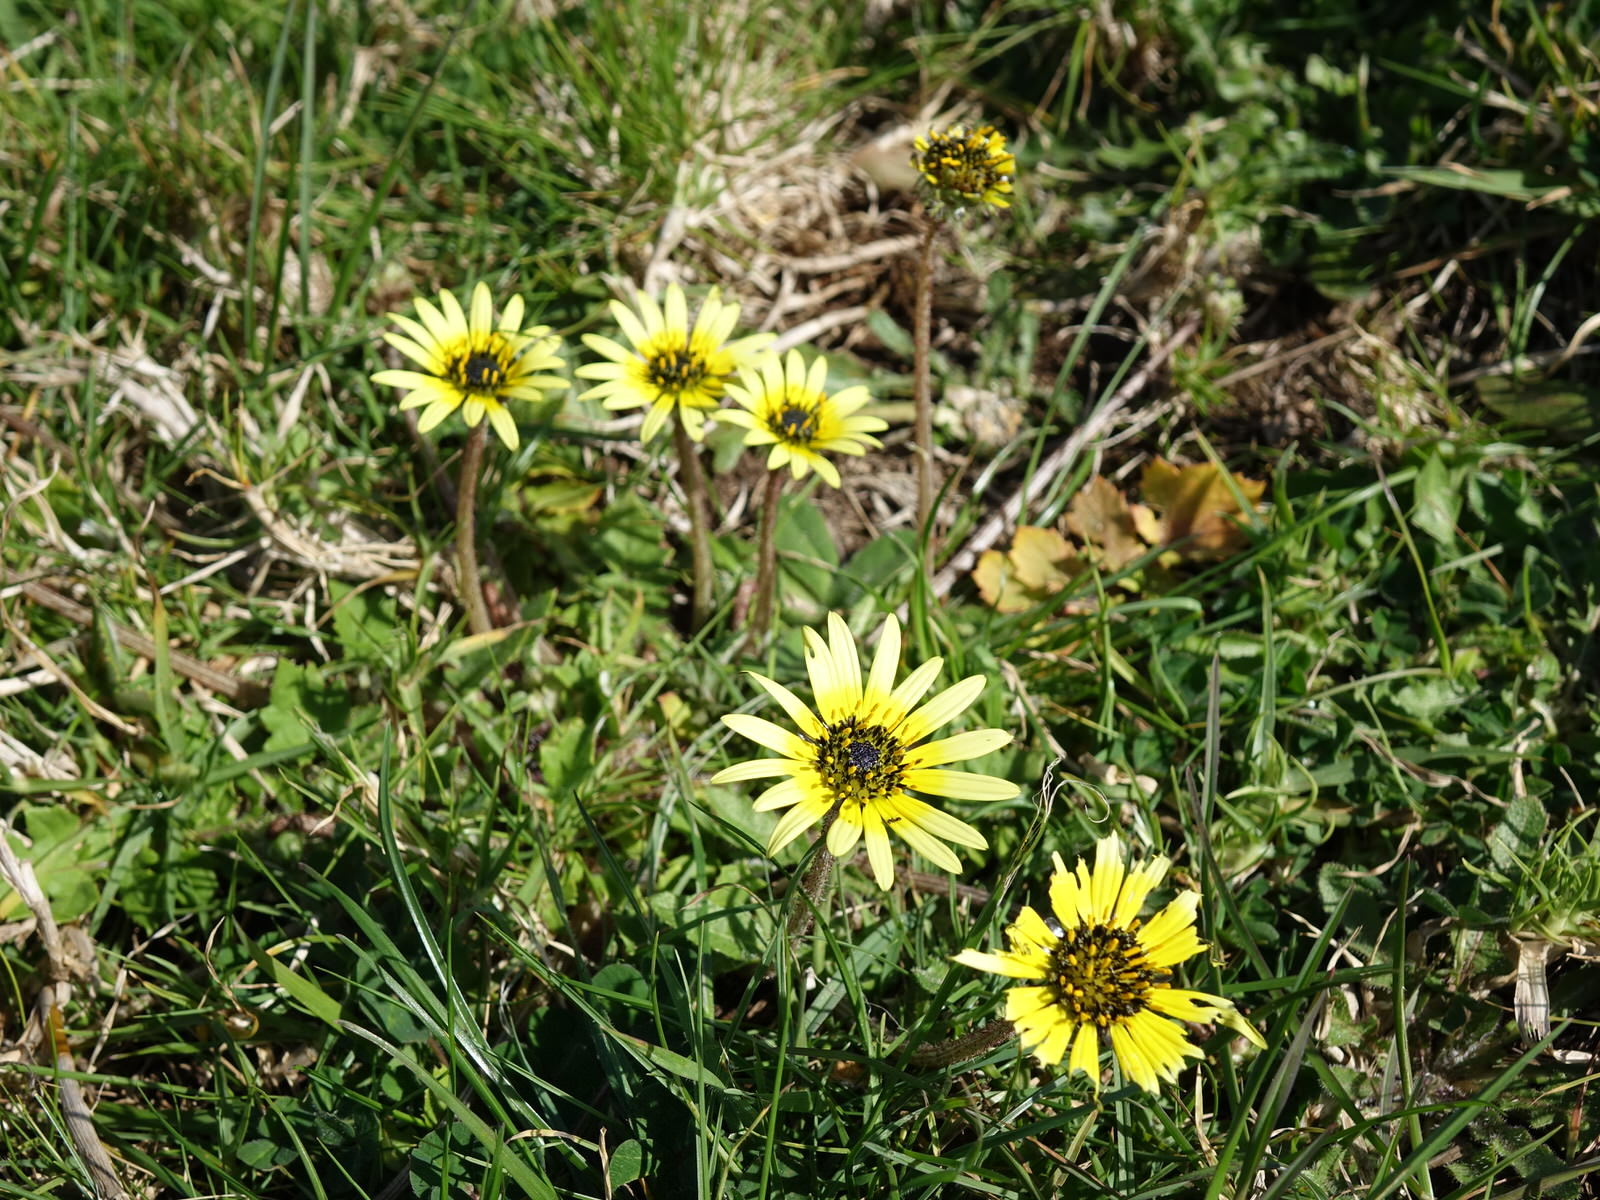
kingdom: Plantae
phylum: Tracheophyta
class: Magnoliopsida
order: Asterales
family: Asteraceae
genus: Arctotheca
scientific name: Arctotheca calendula
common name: Capeweed
